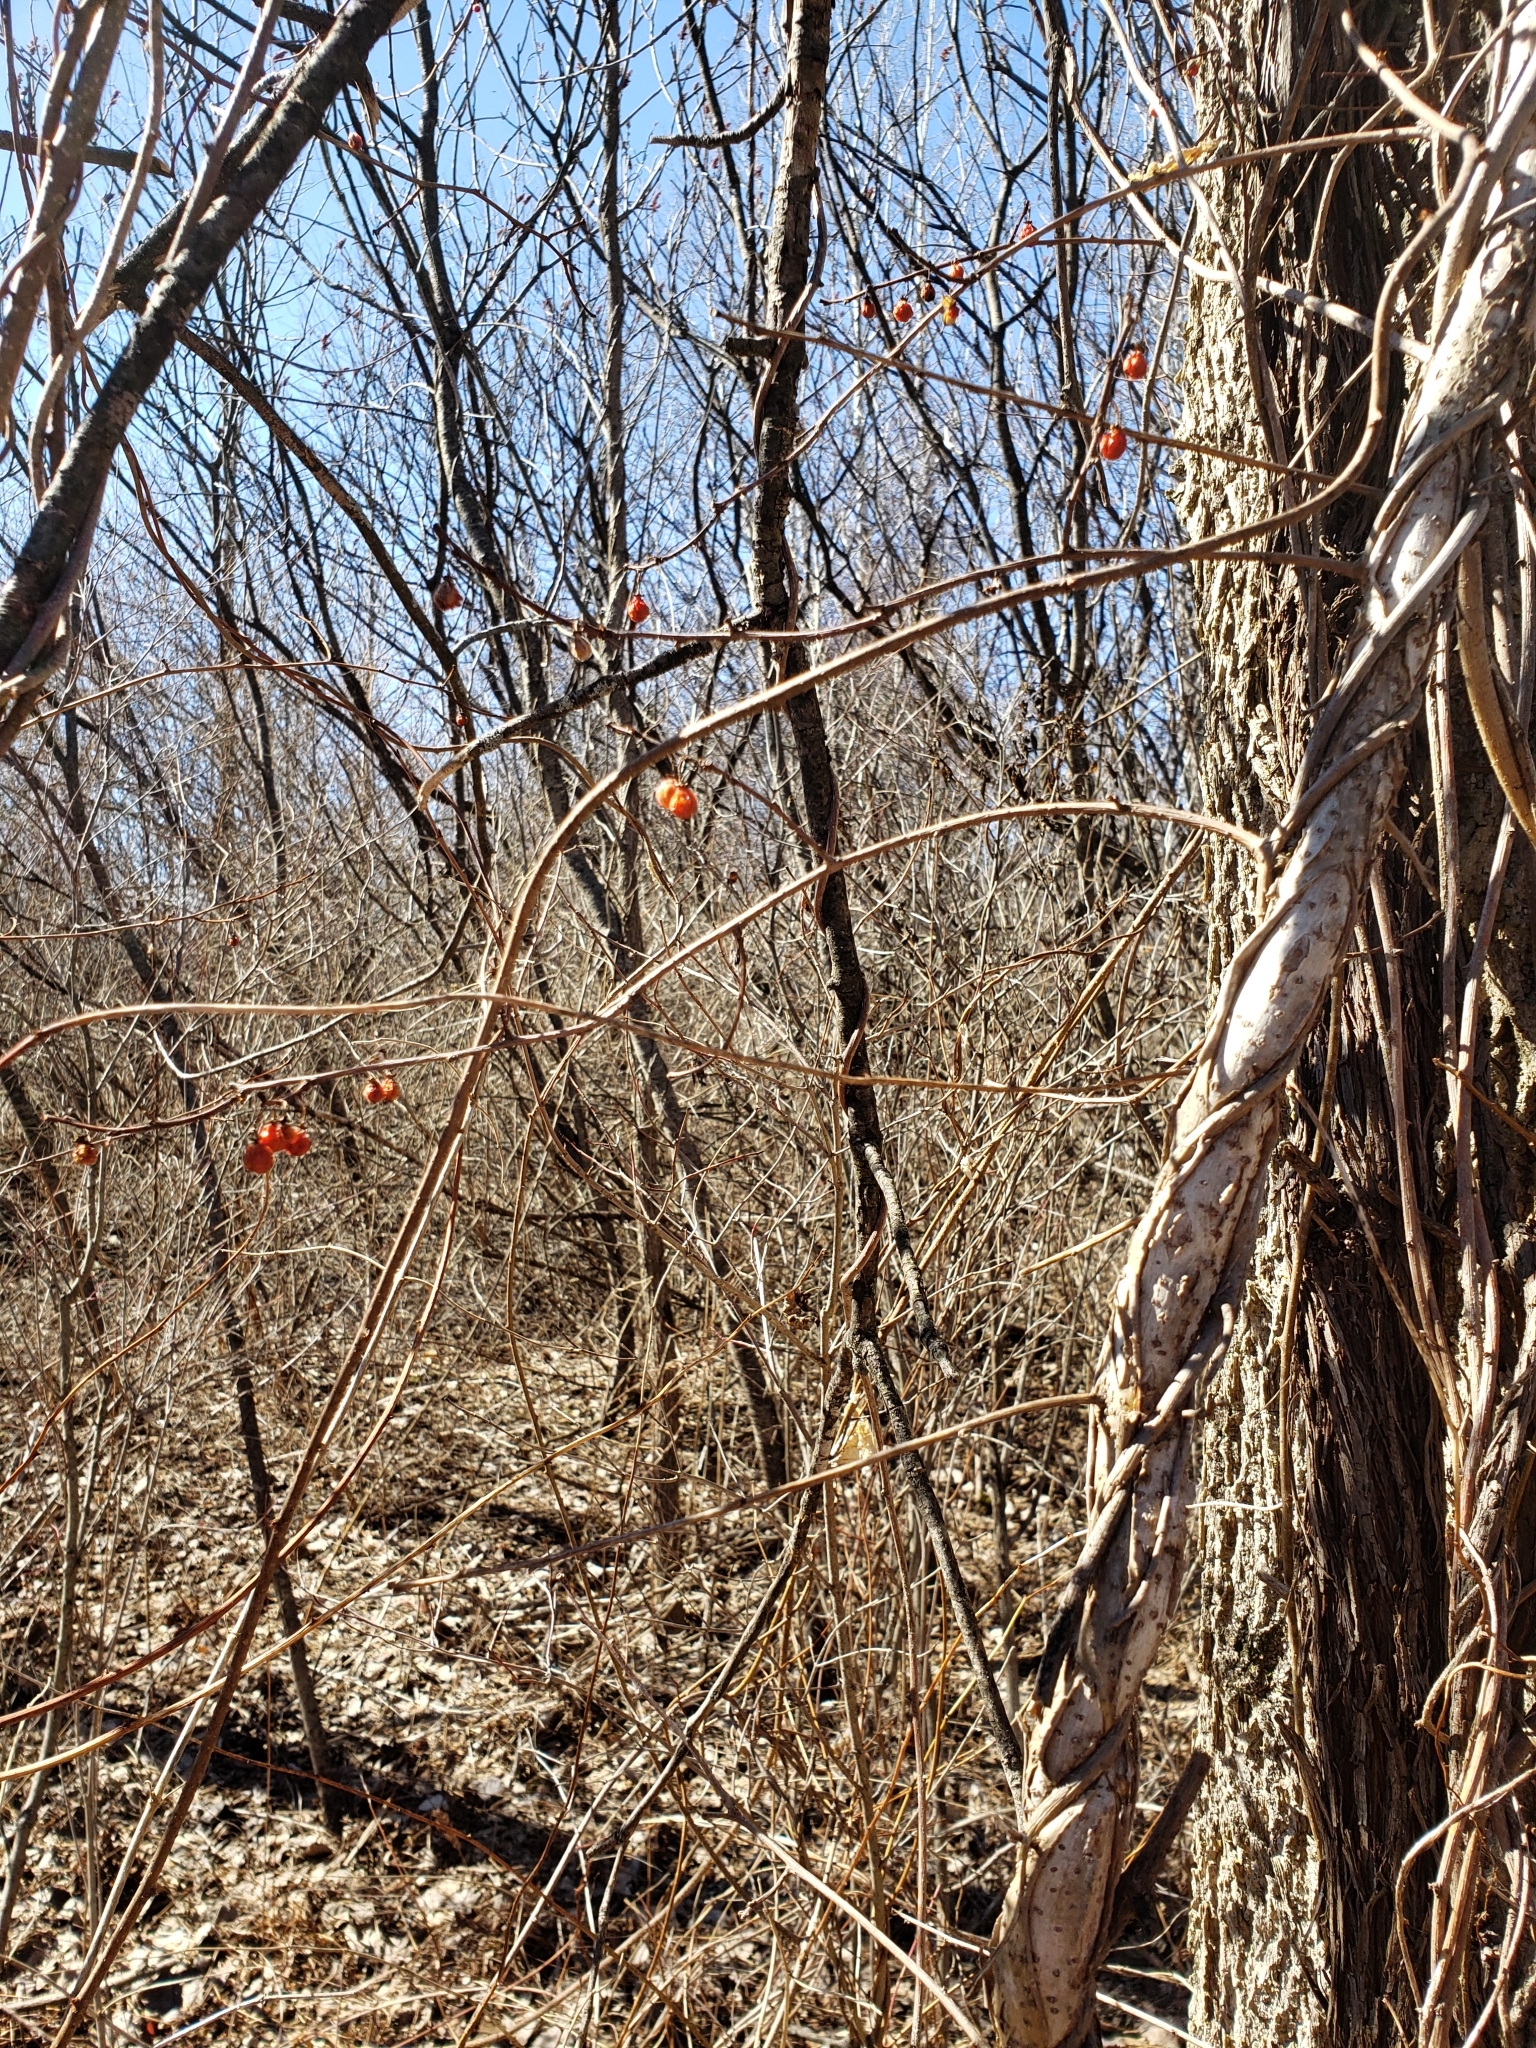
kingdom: Plantae
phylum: Tracheophyta
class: Magnoliopsida
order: Celastrales
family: Celastraceae
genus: Celastrus
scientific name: Celastrus orbiculatus
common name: Oriental bittersweet
